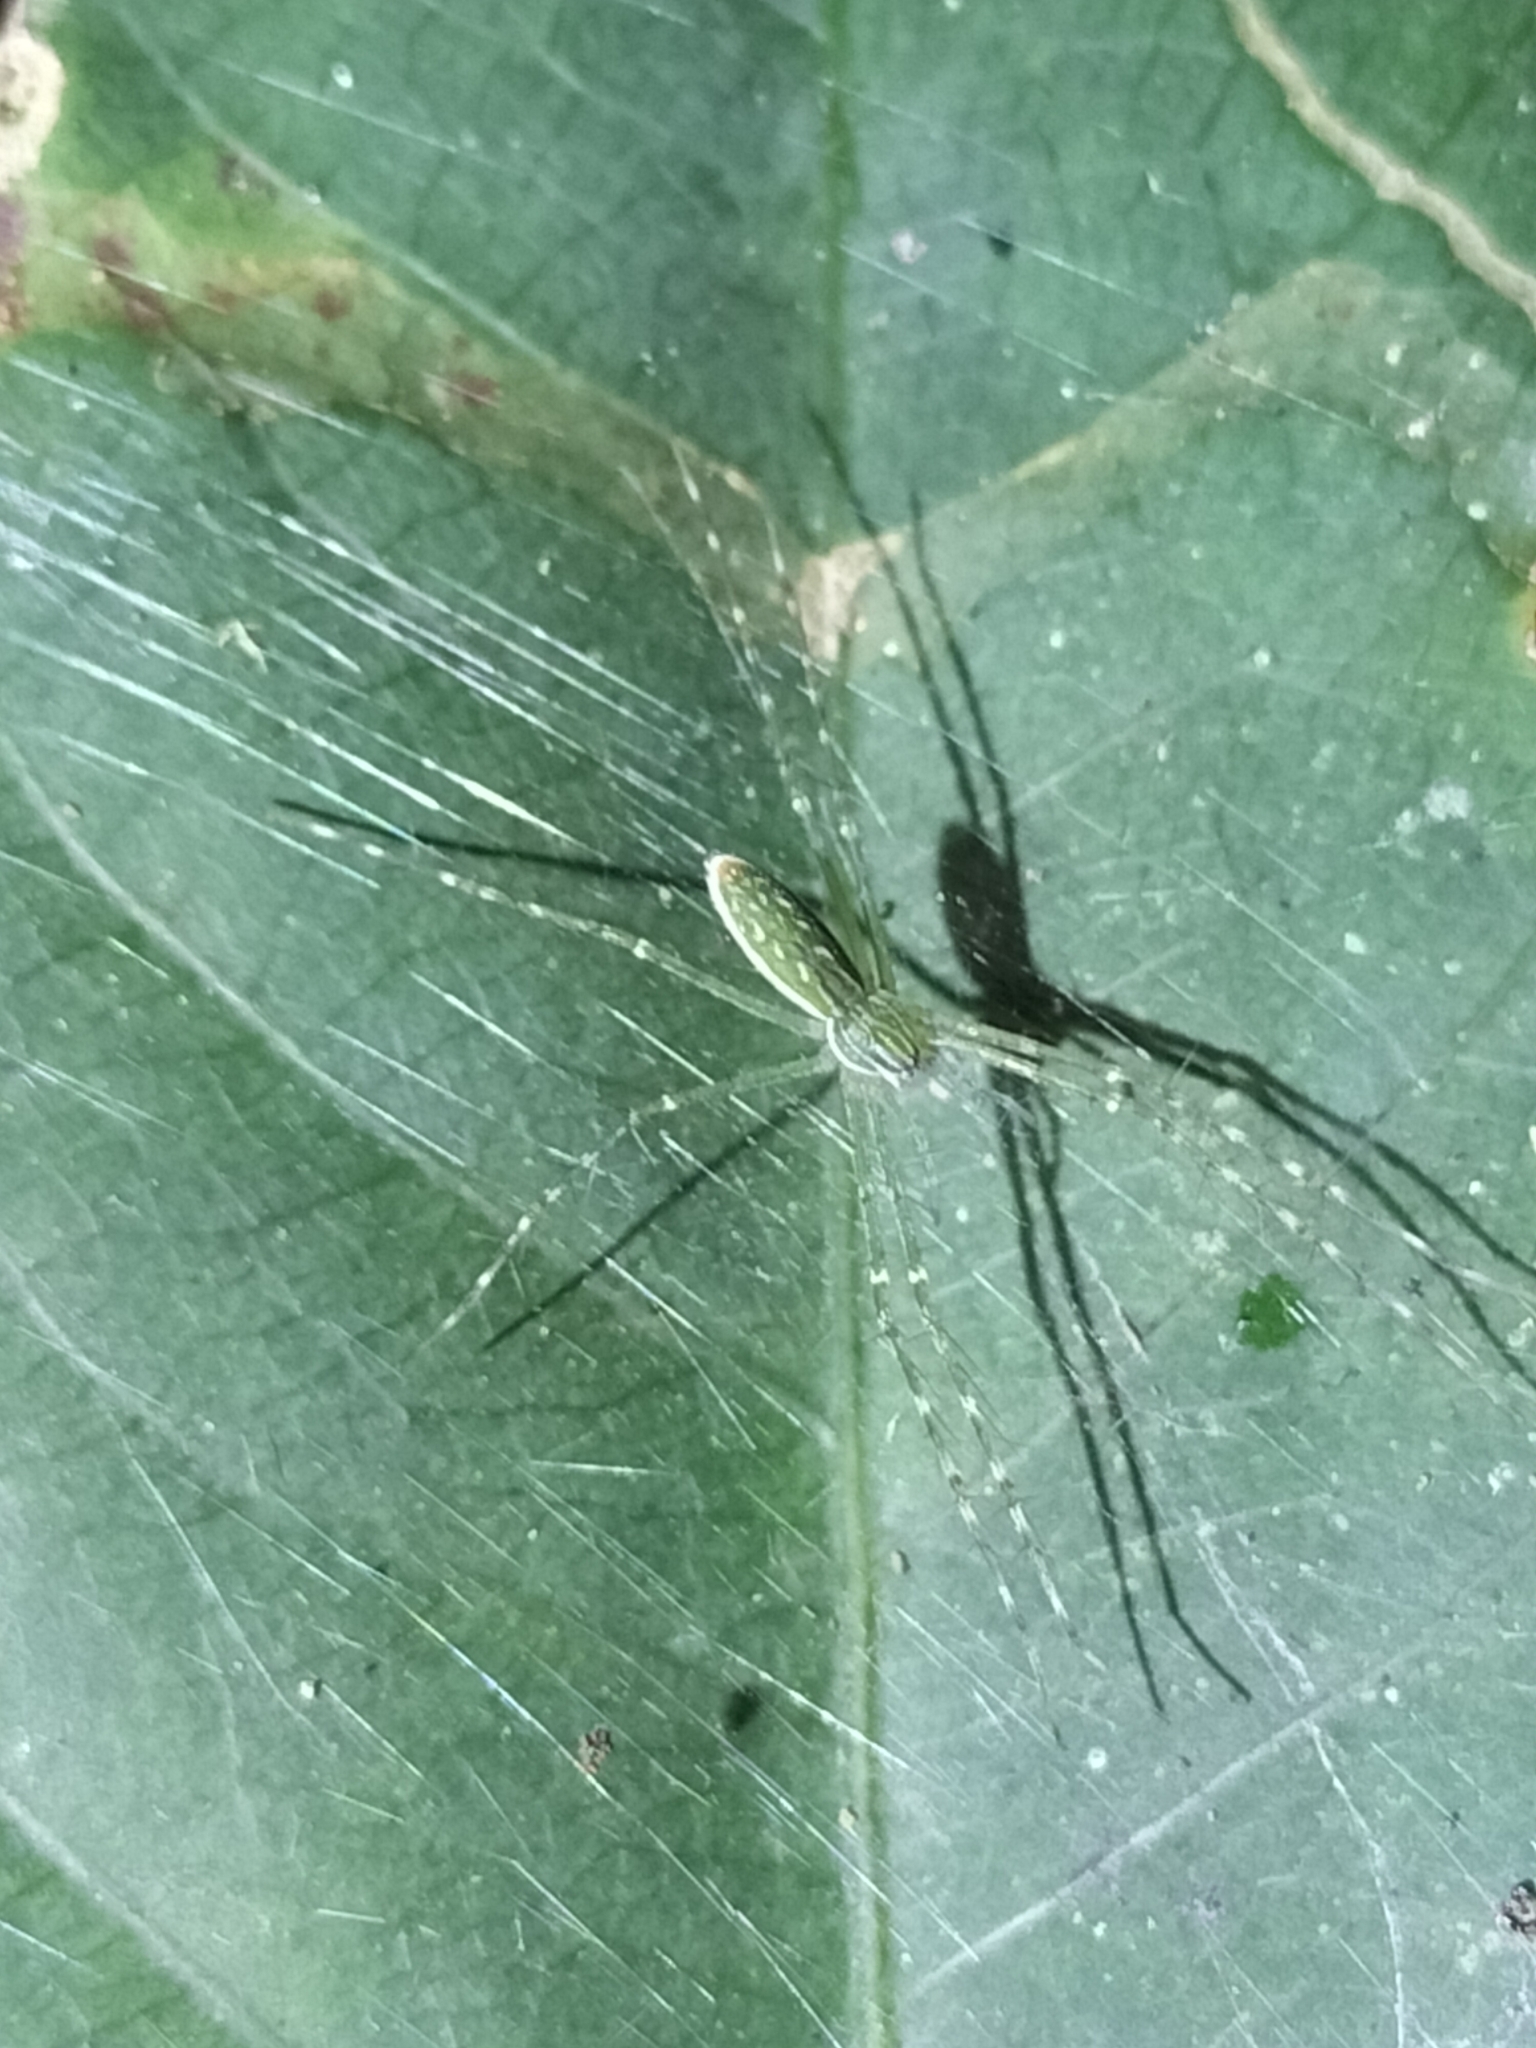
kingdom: Animalia
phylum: Arthropoda
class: Arachnida
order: Araneae
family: Pisauridae
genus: Hygropoda
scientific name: Hygropoda lineata
